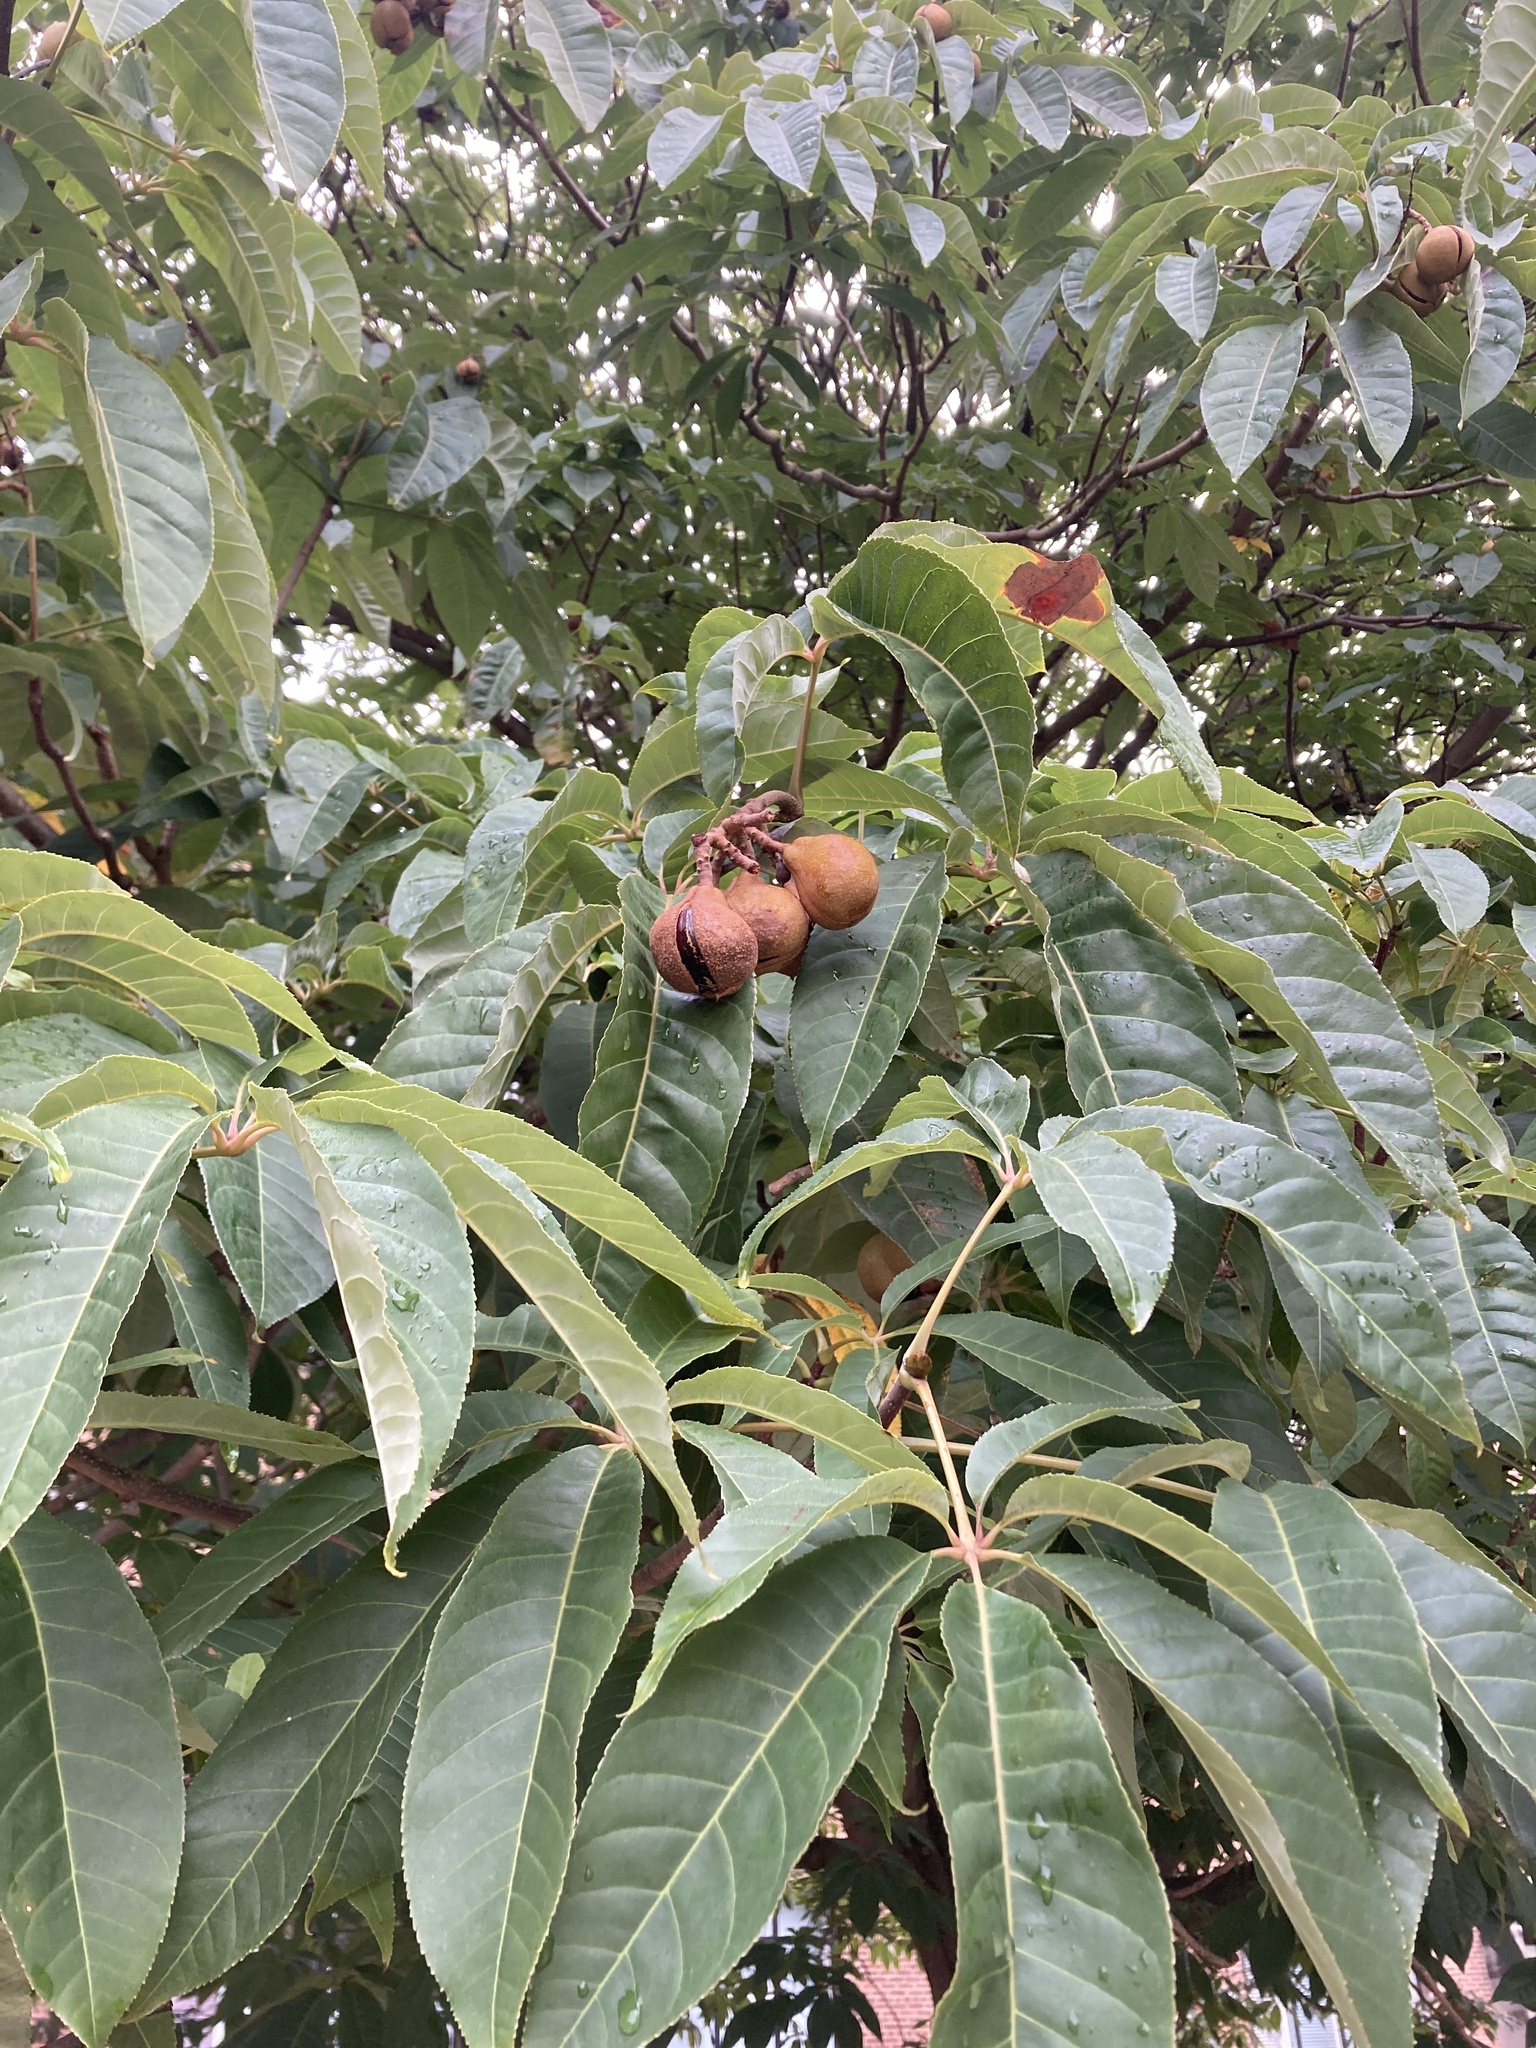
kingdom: Plantae
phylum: Tracheophyta
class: Magnoliopsida
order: Sapindales
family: Sapindaceae
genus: Aesculus
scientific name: Aesculus indica
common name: Indian horse-chestnut
